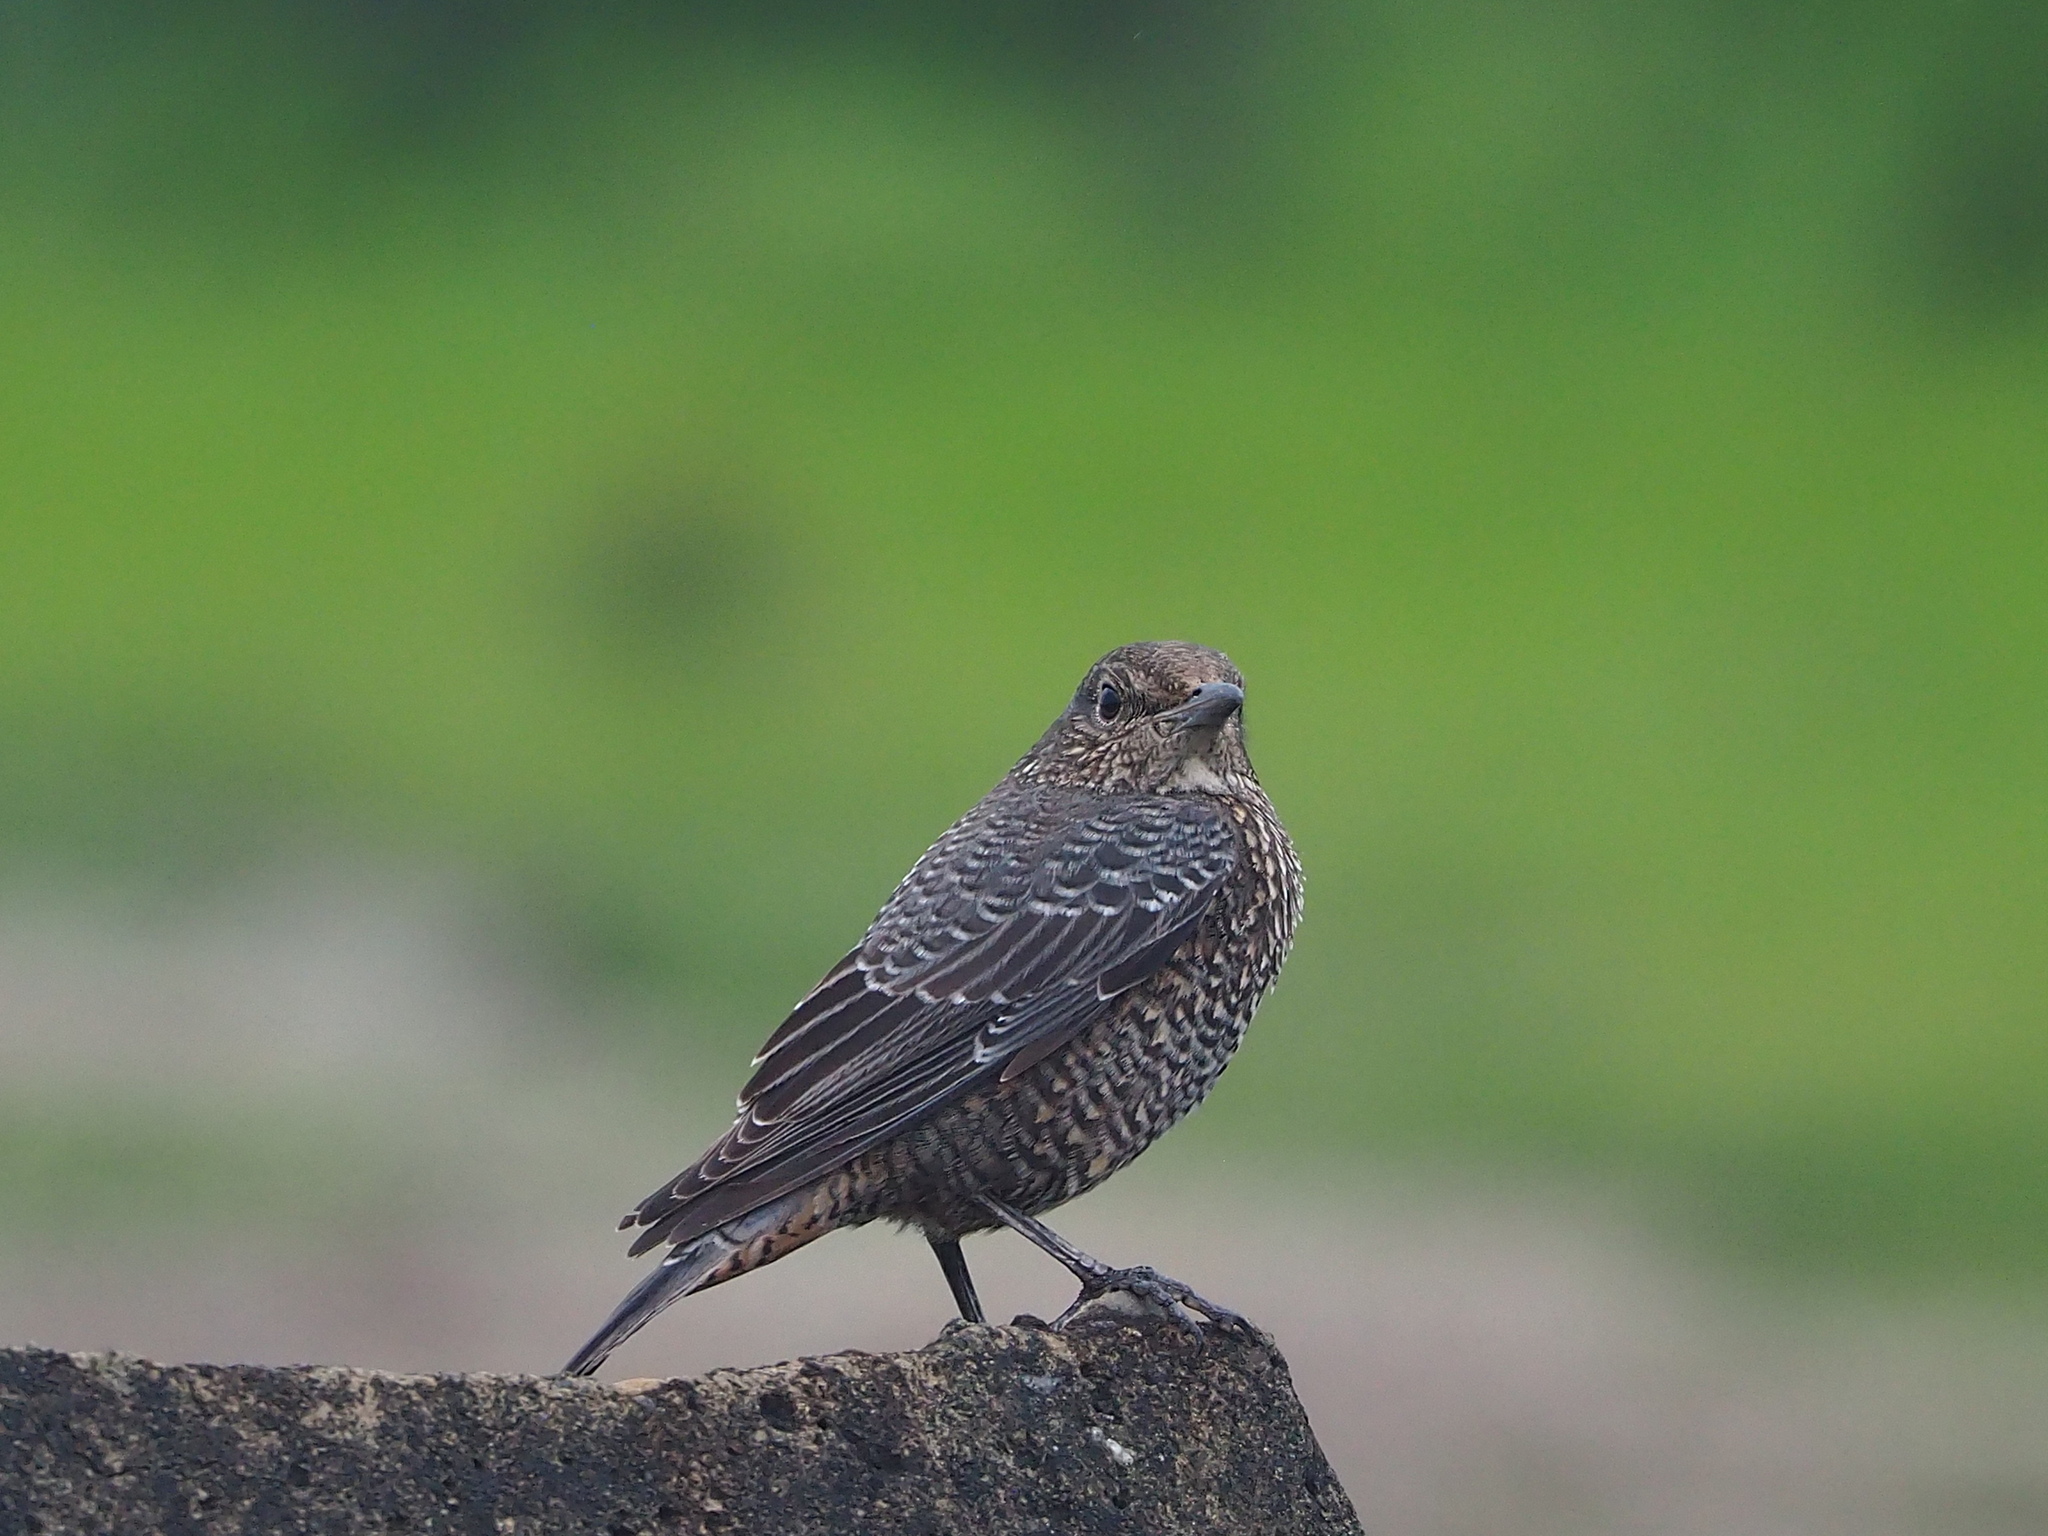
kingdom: Animalia
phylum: Chordata
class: Aves
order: Passeriformes
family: Muscicapidae
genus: Monticola
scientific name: Monticola solitarius
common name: Blue rock thrush
